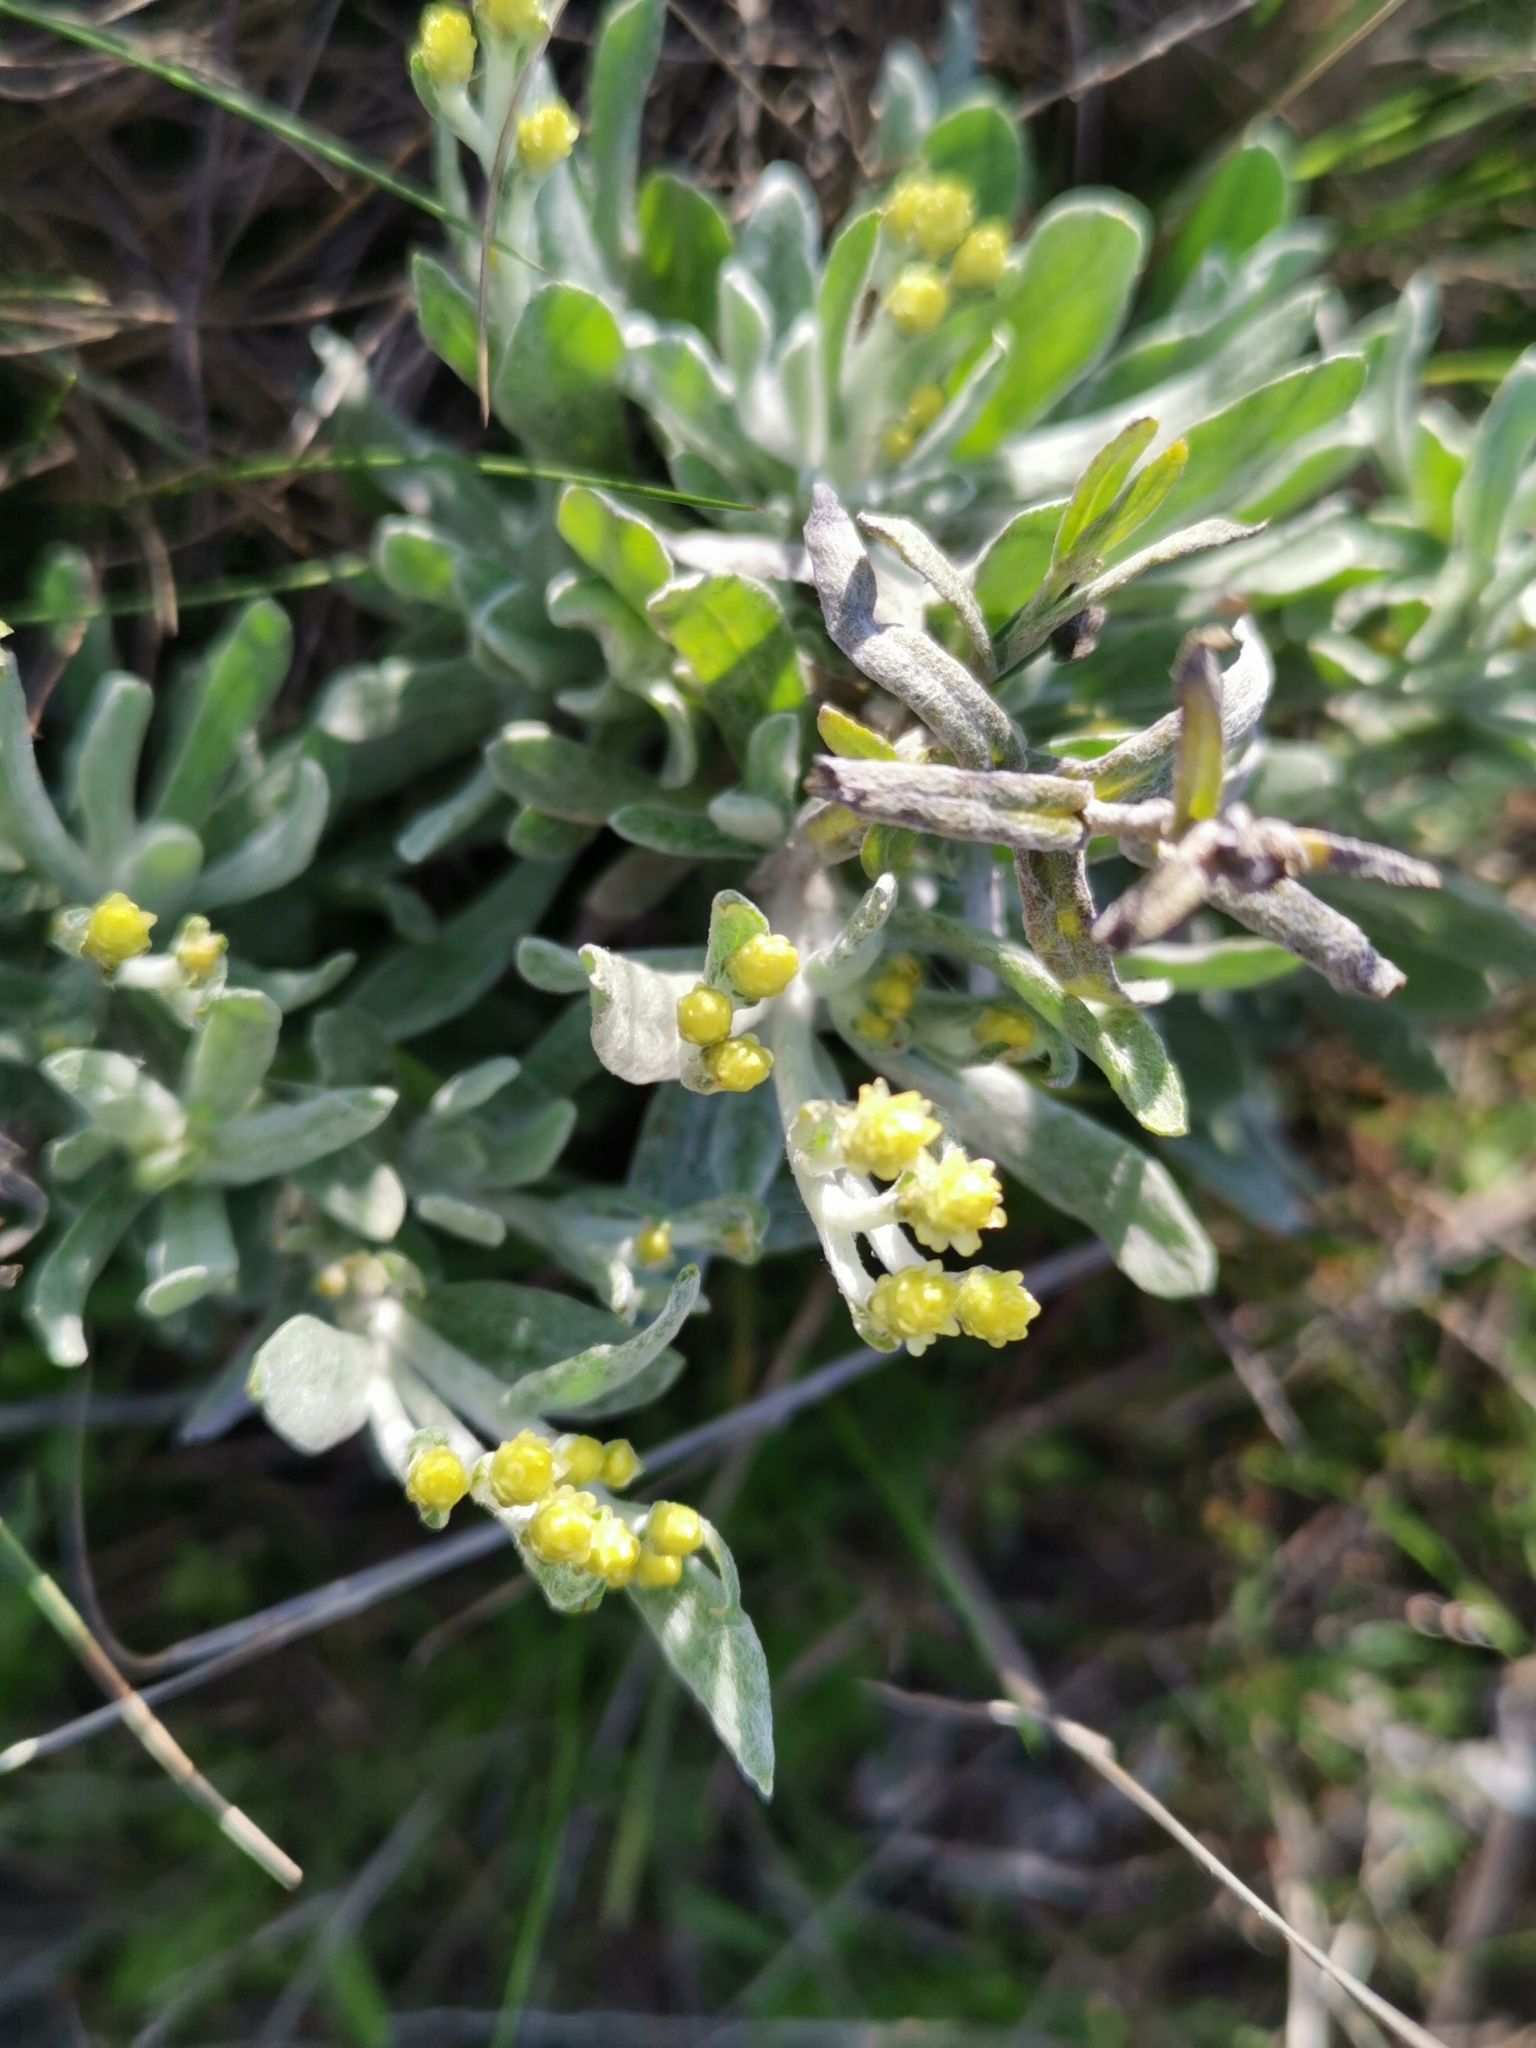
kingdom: Plantae
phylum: Tracheophyta
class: Magnoliopsida
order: Asterales
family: Asteraceae
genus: Helichrysum
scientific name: Helichrysum arenarium
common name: Strawflower
